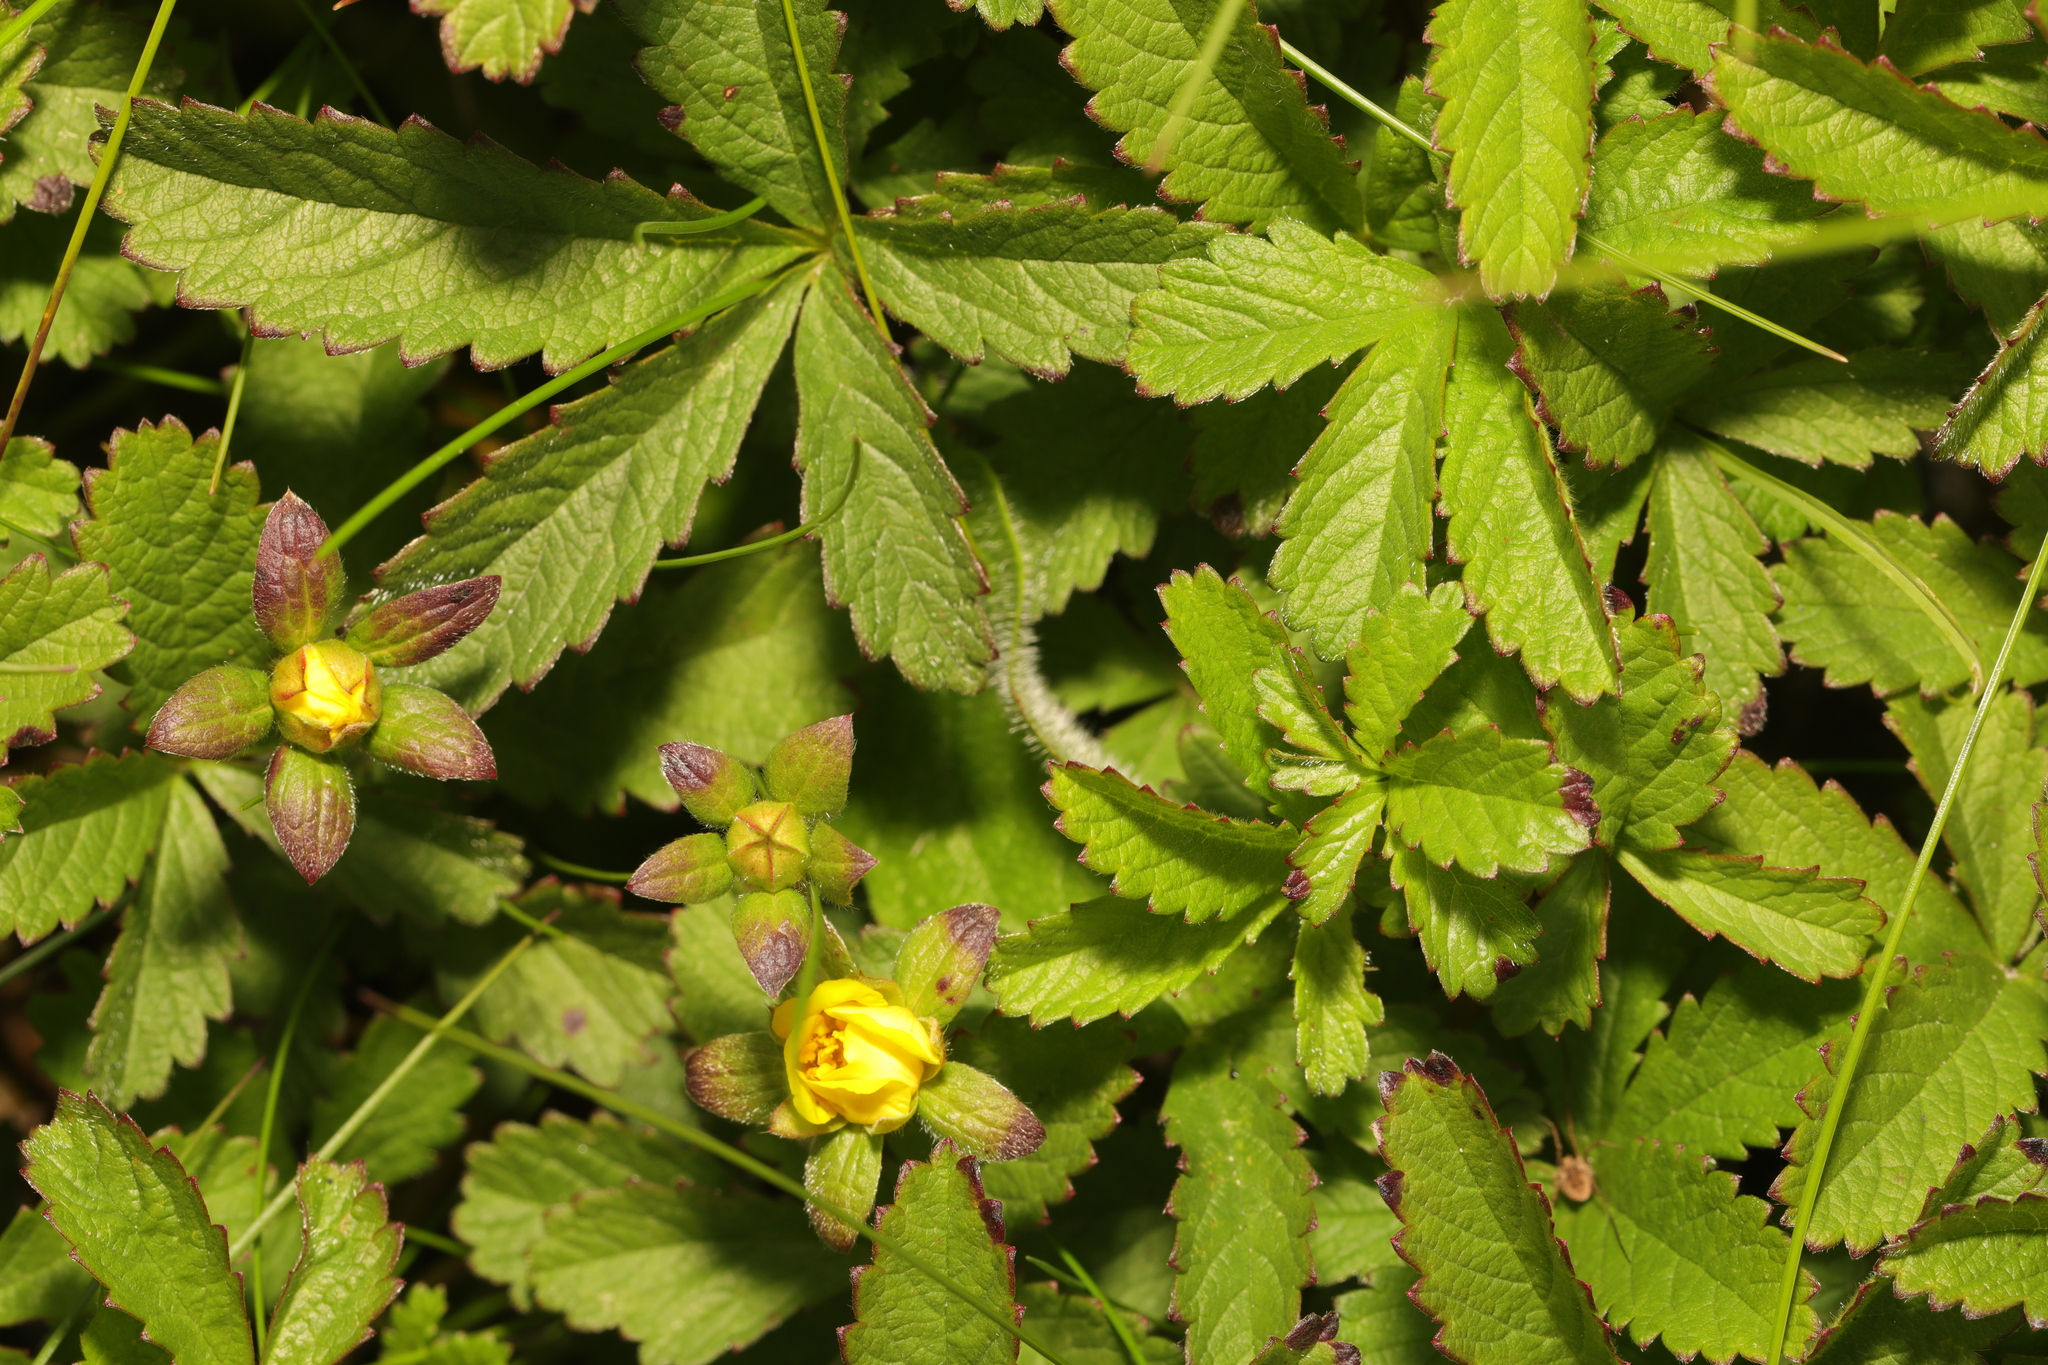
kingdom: Plantae
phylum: Tracheophyta
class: Magnoliopsida
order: Rosales
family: Rosaceae
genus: Potentilla
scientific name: Potentilla reptans
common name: Creeping cinquefoil
